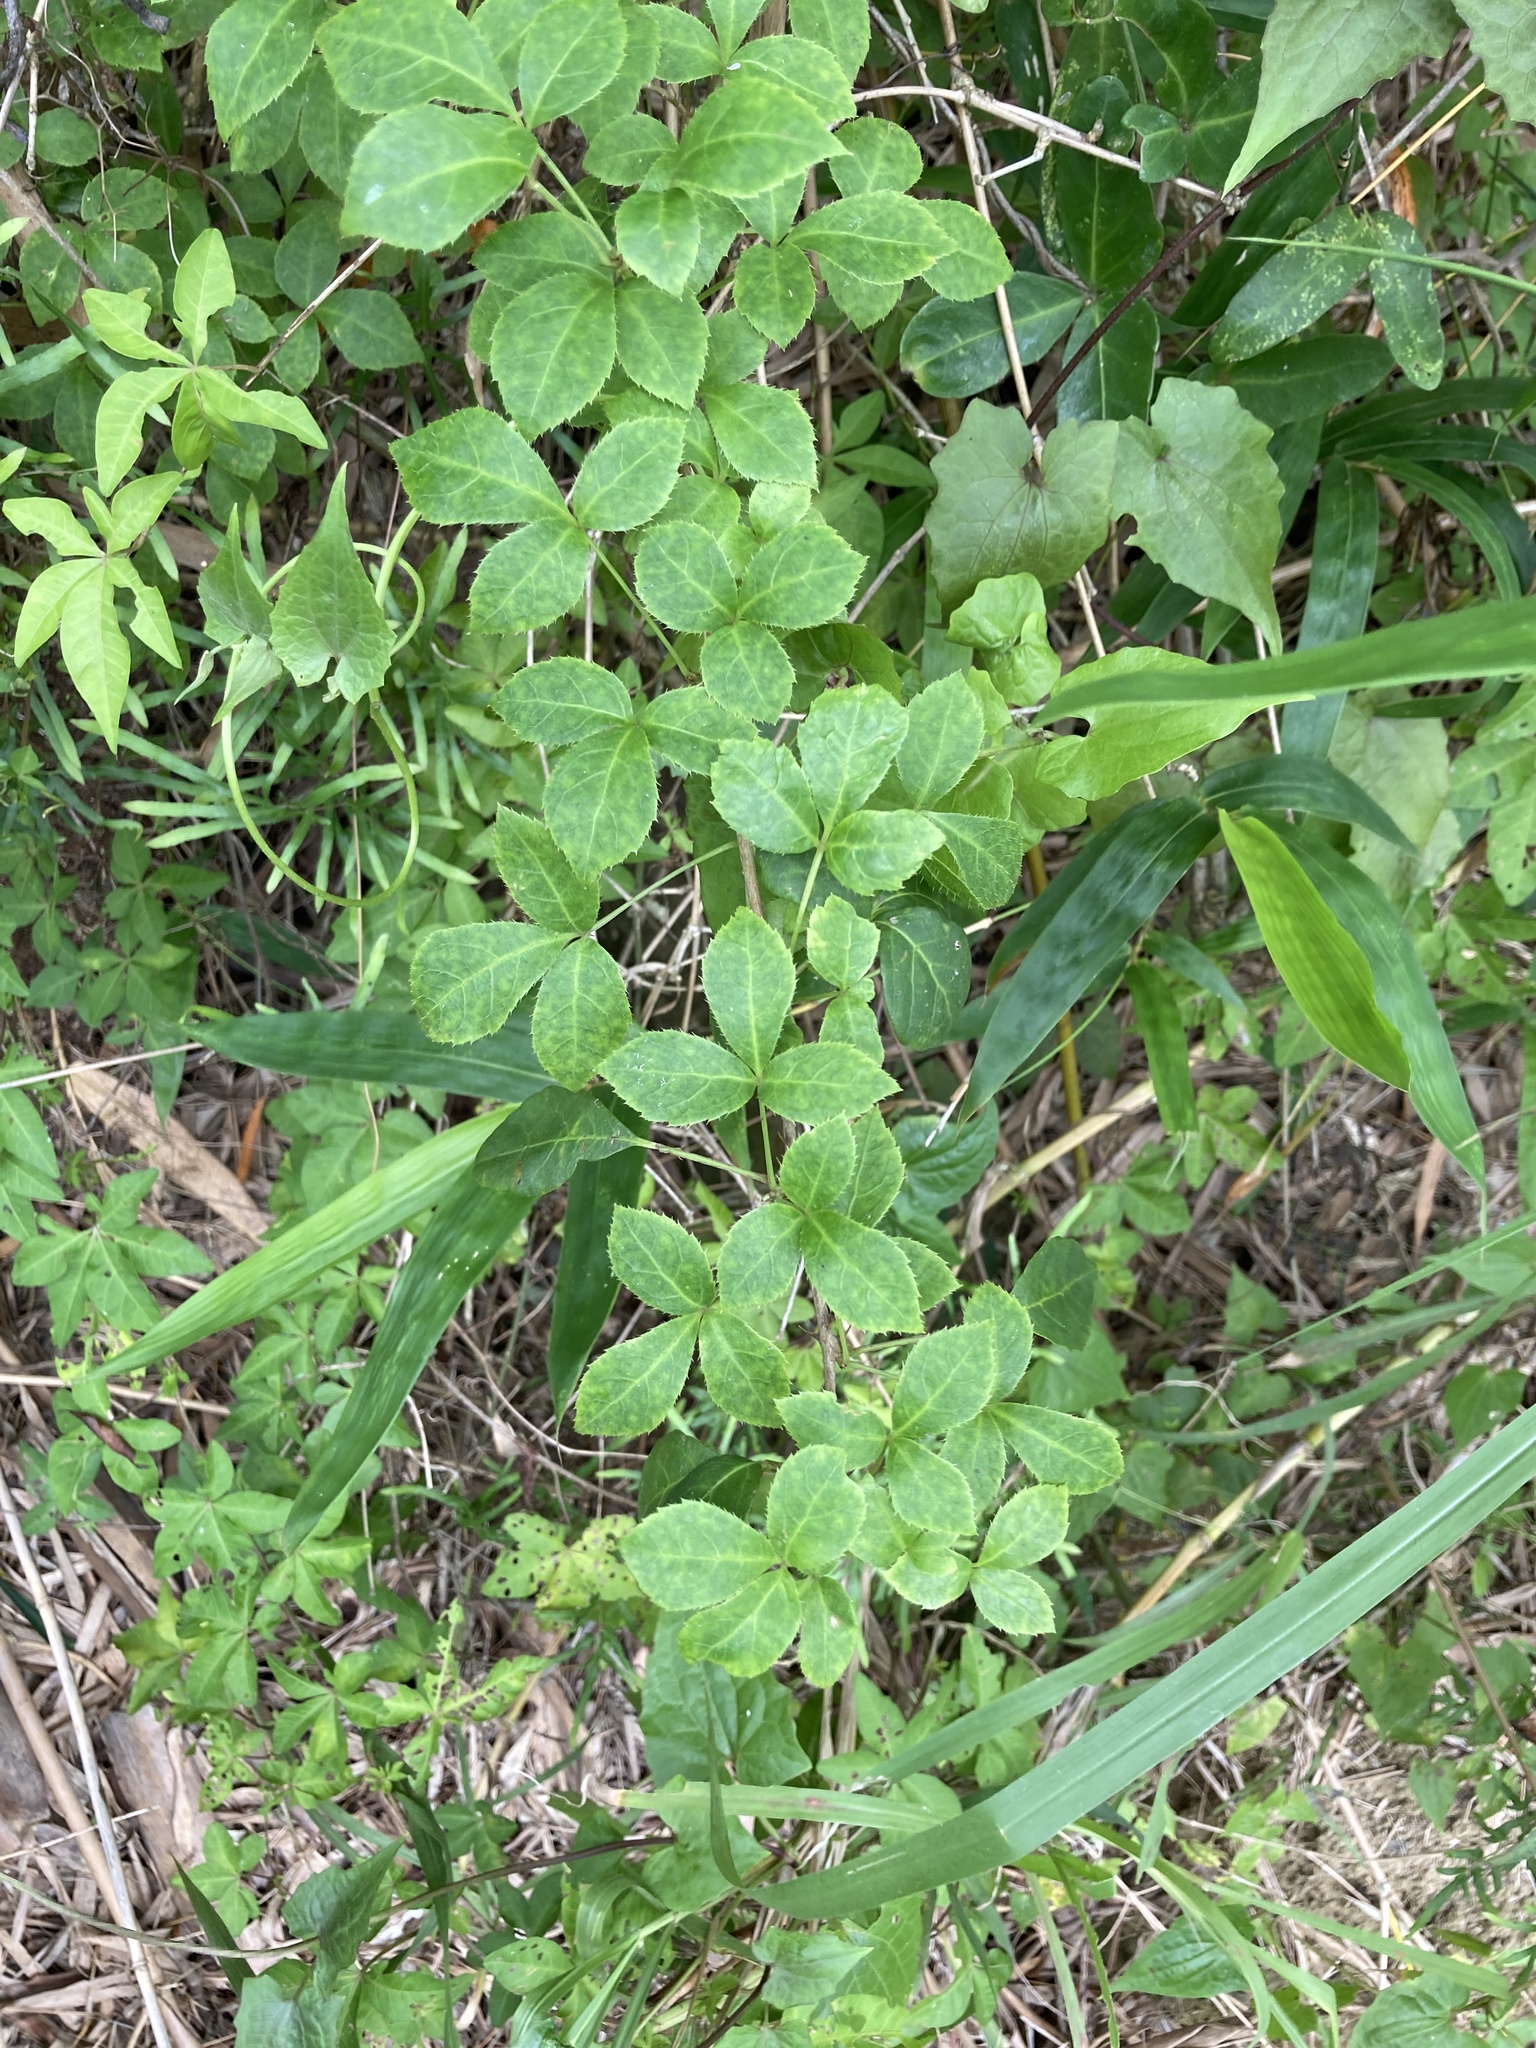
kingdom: Plantae
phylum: Tracheophyta
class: Magnoliopsida
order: Apiales
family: Araliaceae
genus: Eleutherococcus
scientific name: Eleutherococcus trifoliatus
